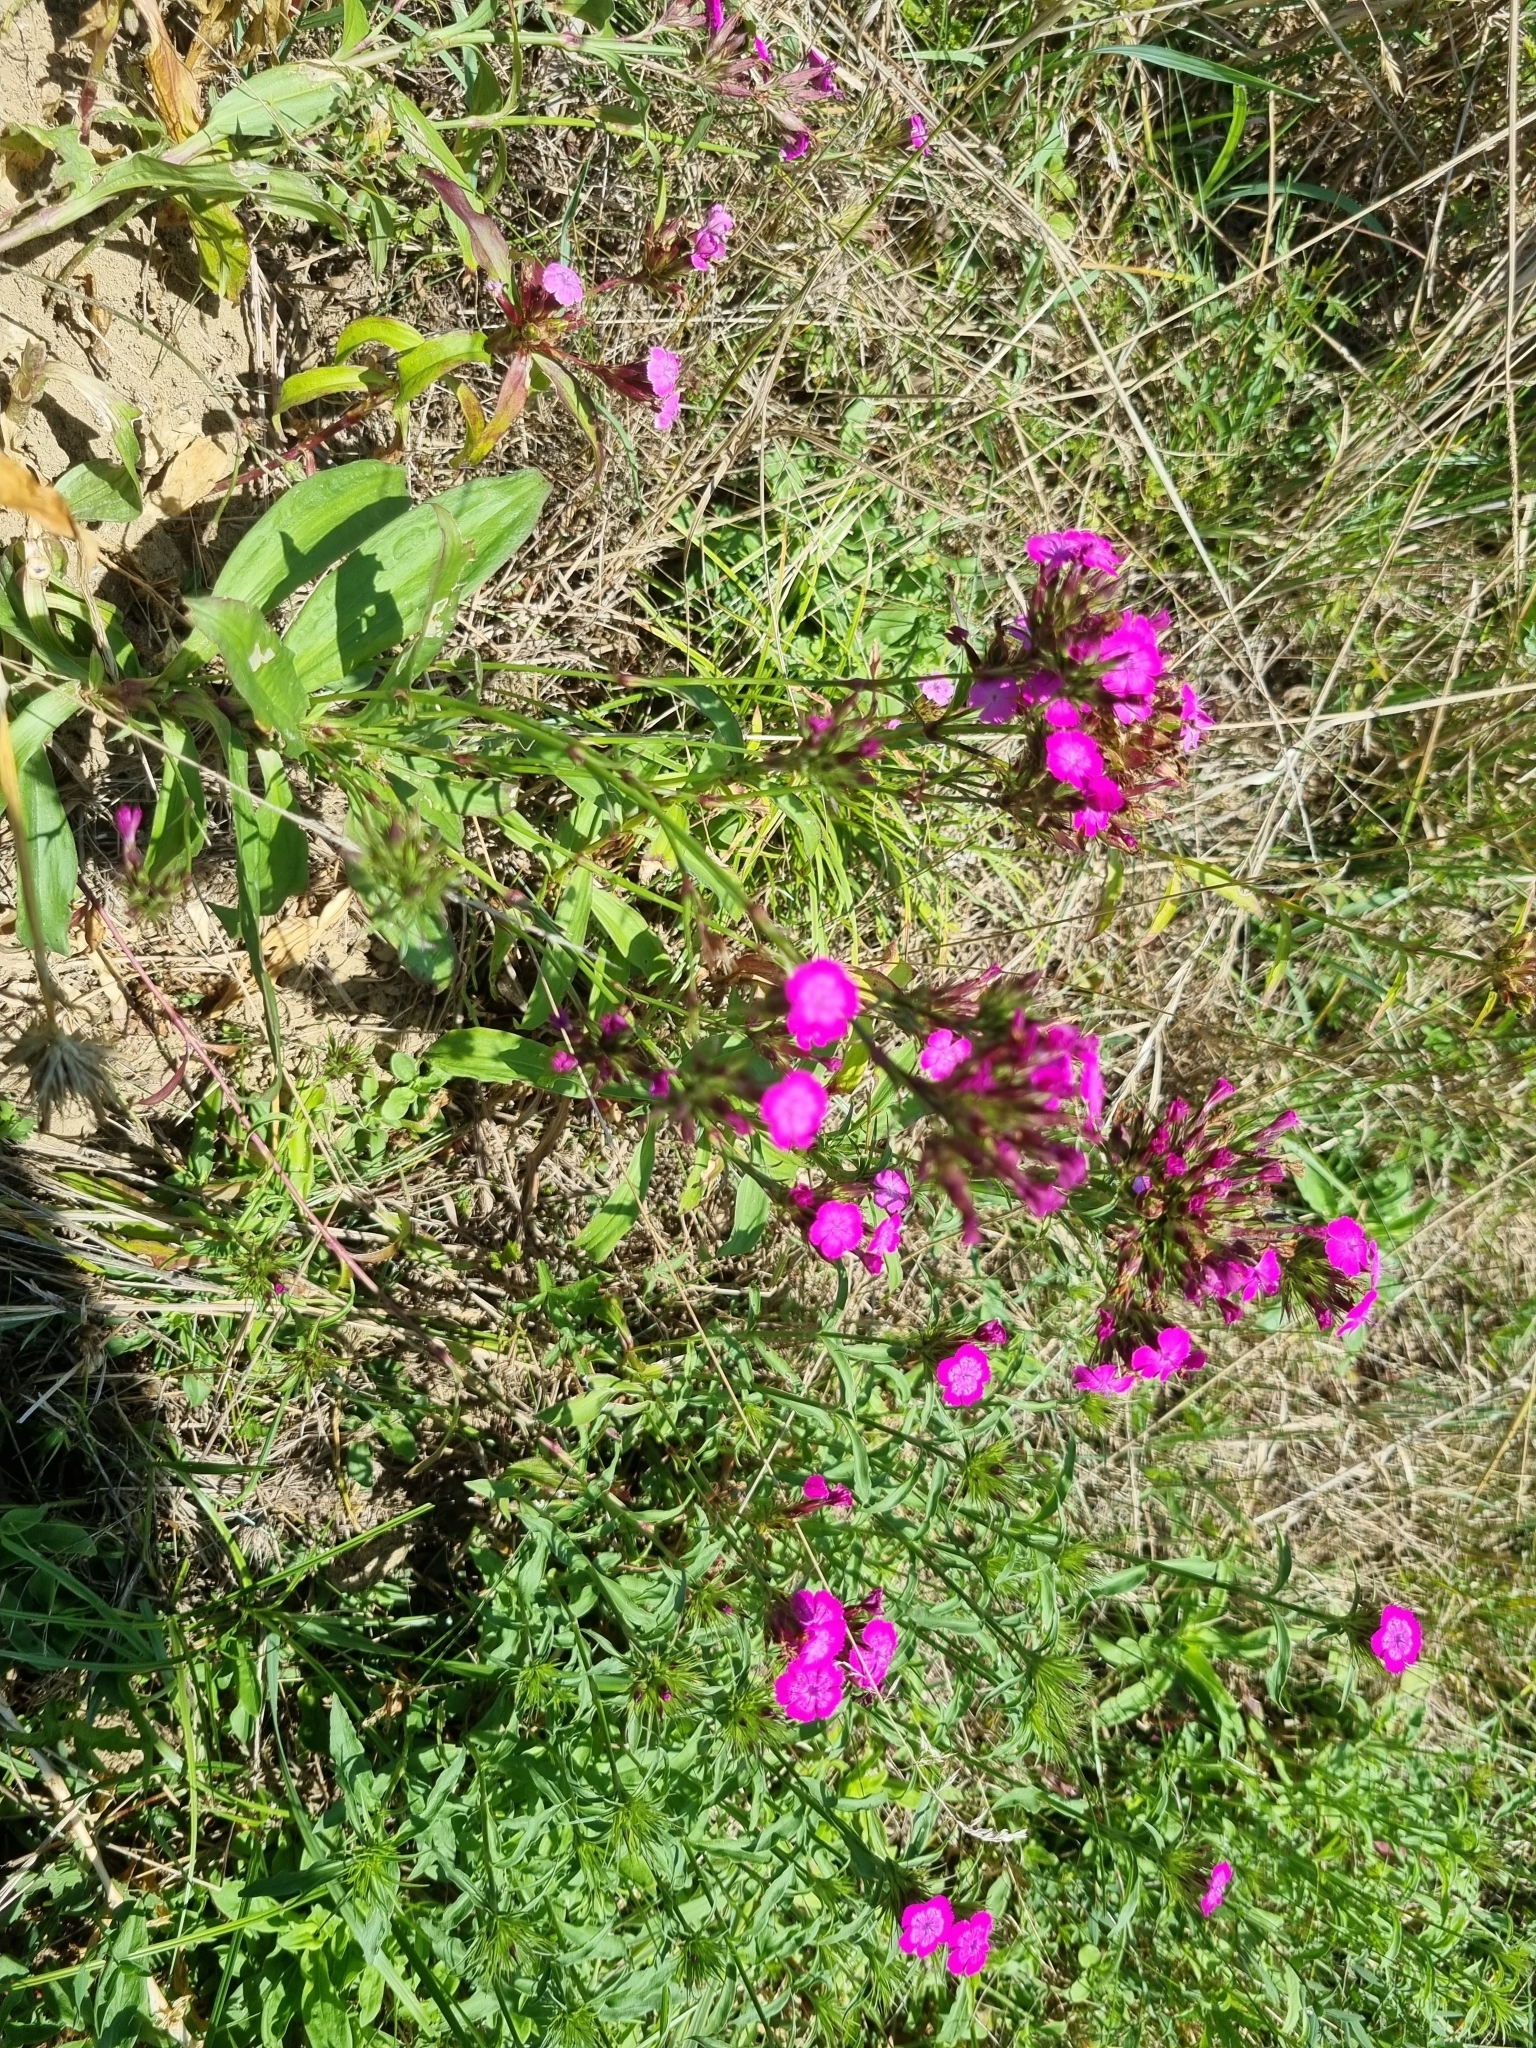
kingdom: Plantae
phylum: Tracheophyta
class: Magnoliopsida
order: Caryophyllales
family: Caryophyllaceae
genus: Dianthus
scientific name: Dianthus barbatus
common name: Sweet-william
